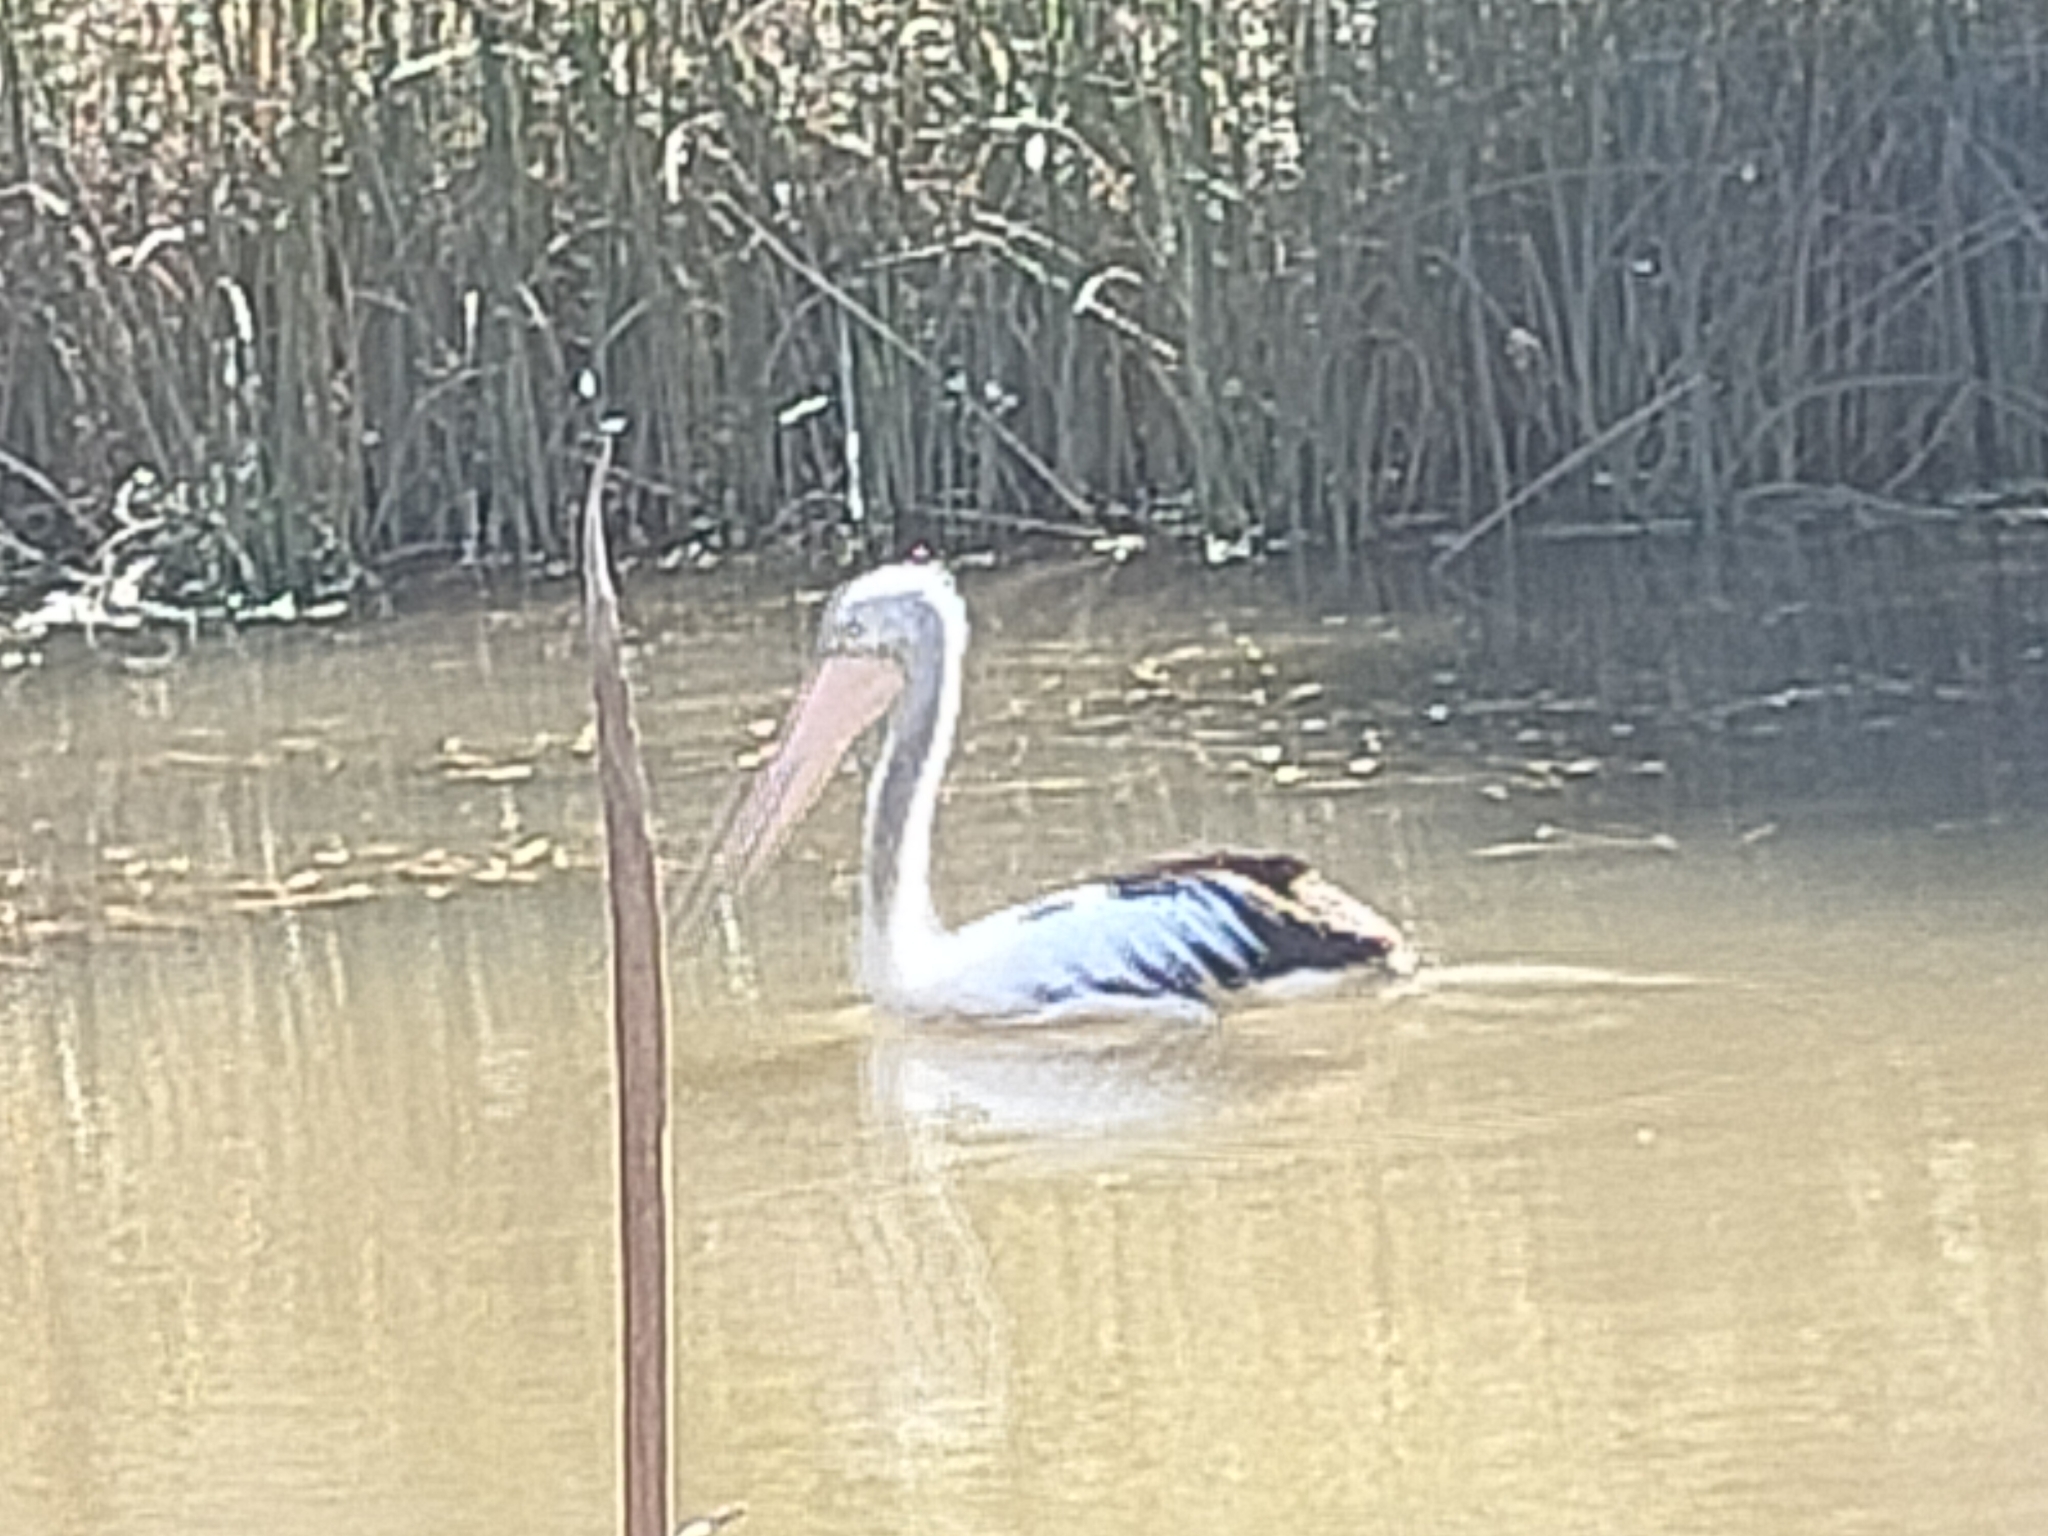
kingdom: Animalia
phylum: Chordata
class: Aves
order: Pelecaniformes
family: Pelecanidae
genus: Pelecanus
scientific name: Pelecanus conspicillatus
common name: Australian pelican
